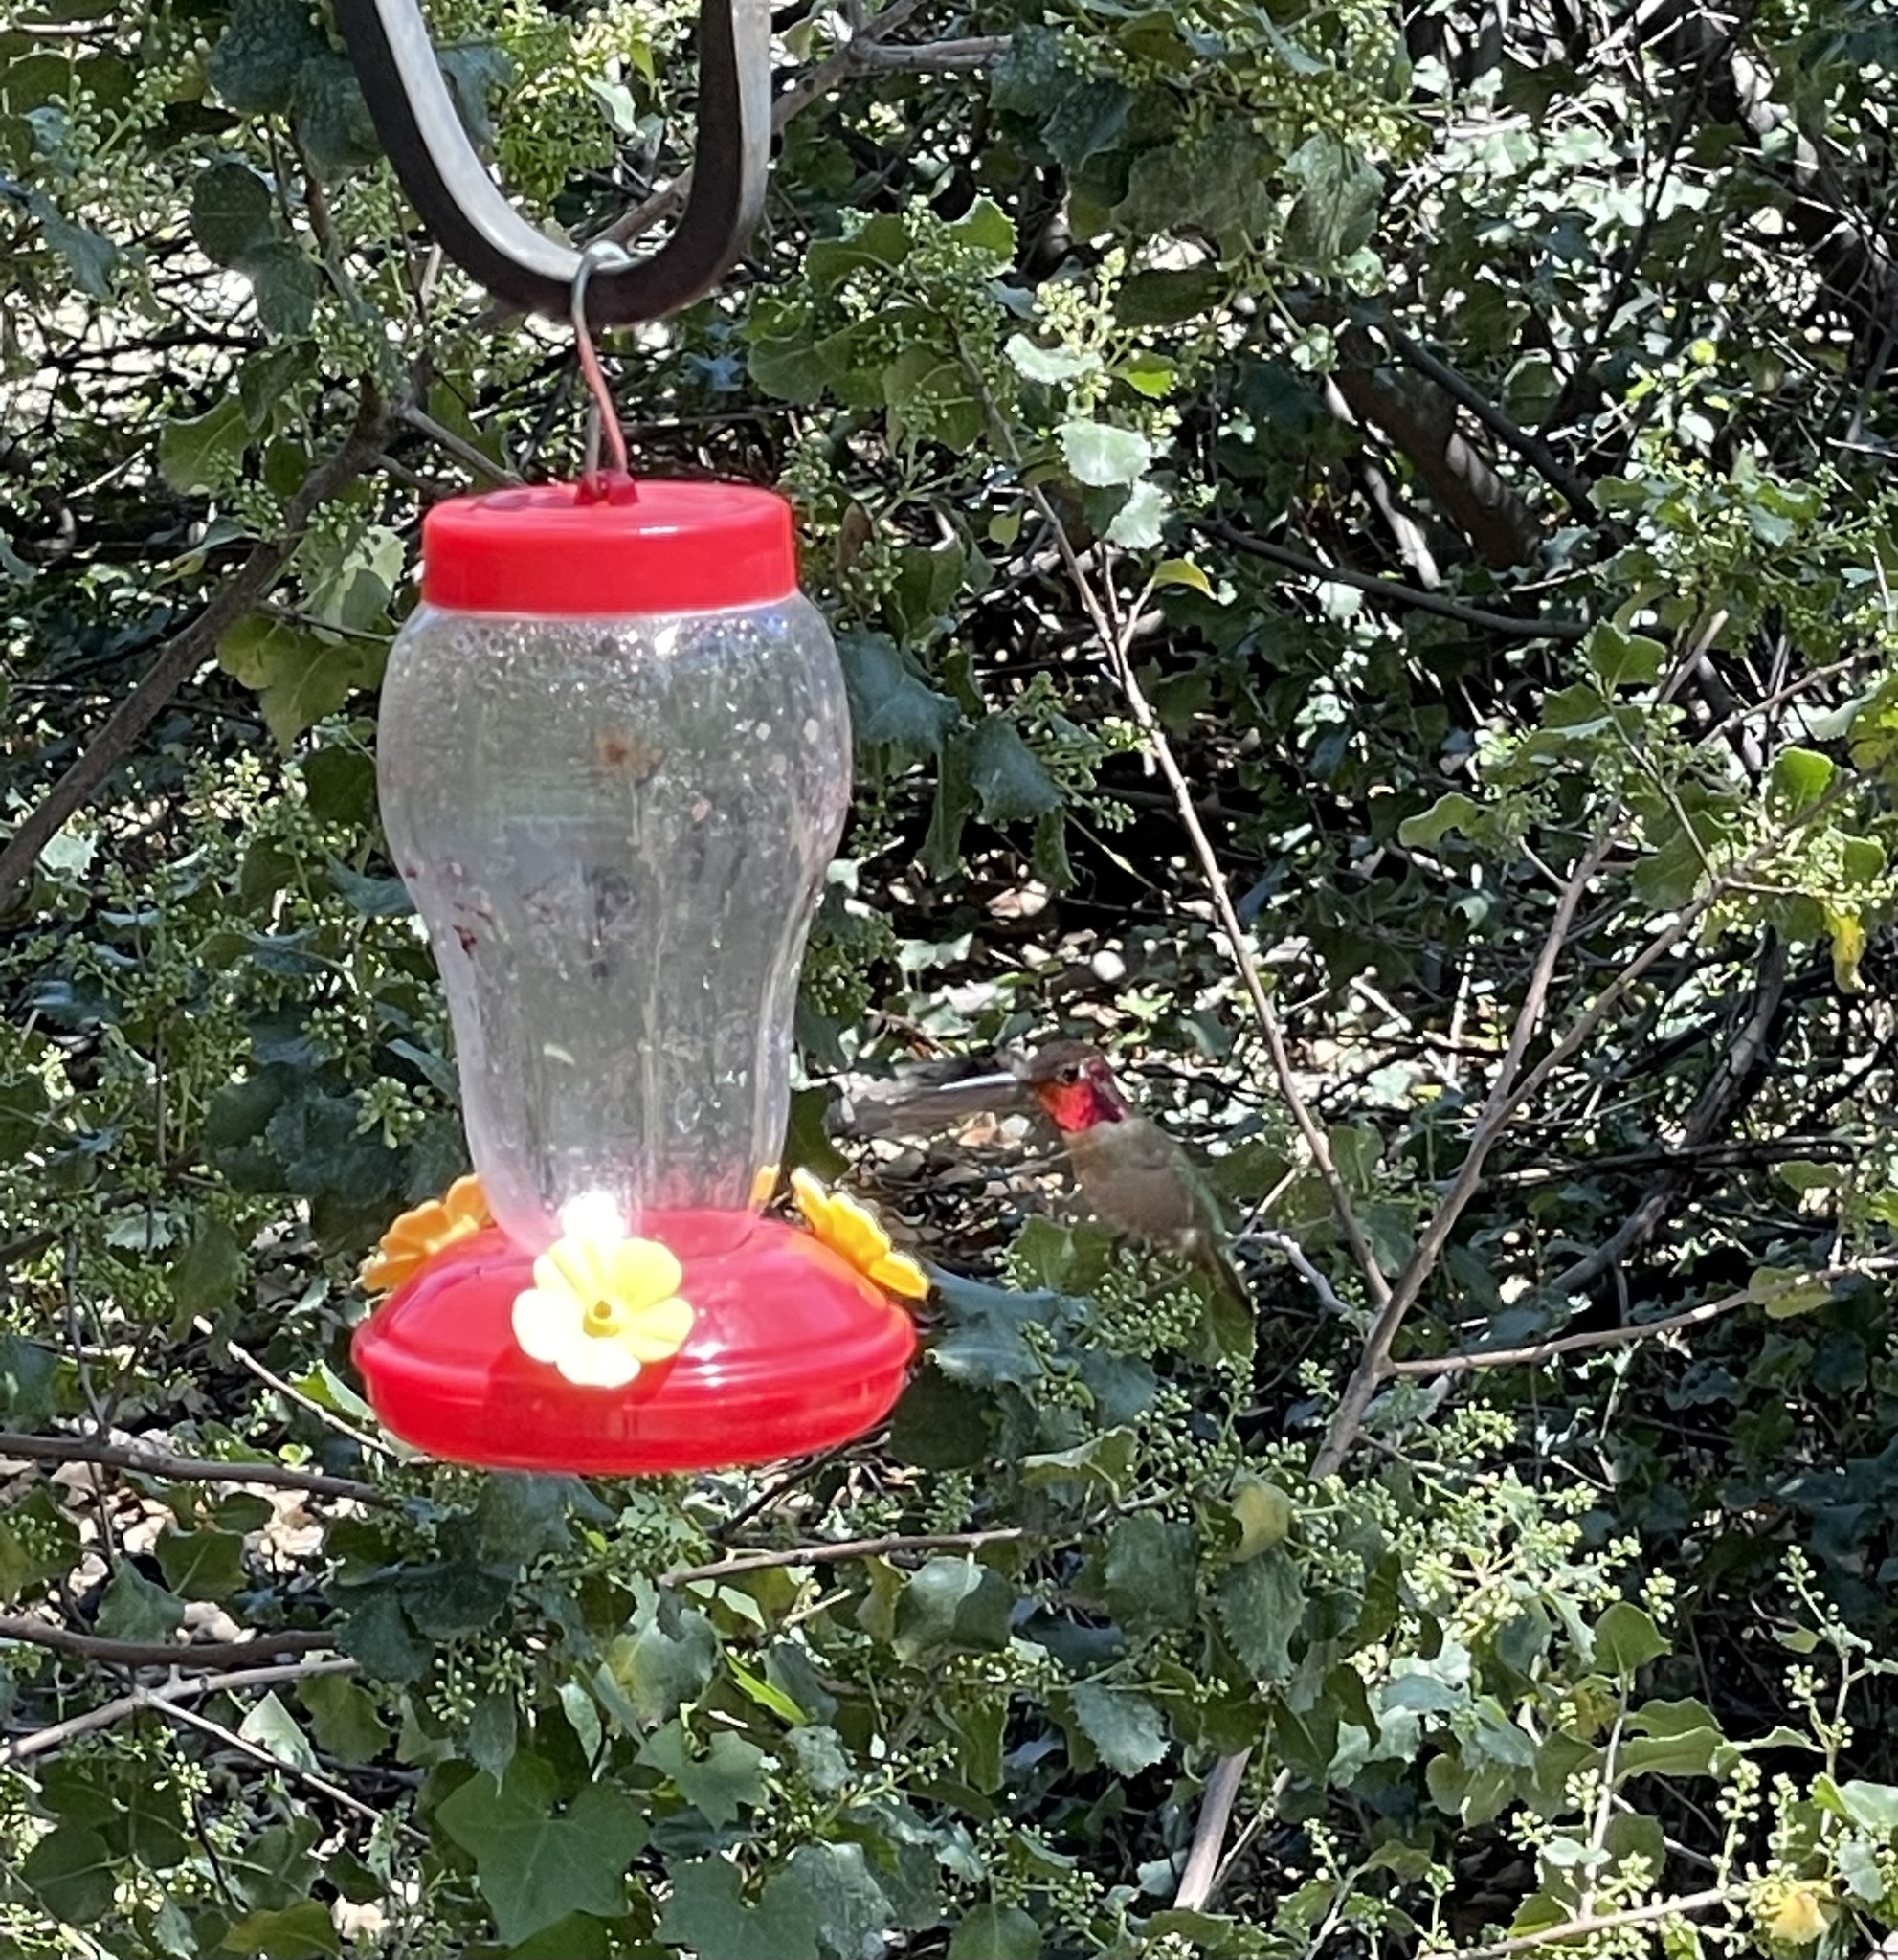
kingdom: Animalia
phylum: Chordata
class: Aves
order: Apodiformes
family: Trochilidae
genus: Calypte
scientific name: Calypte anna
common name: Anna's hummingbird
